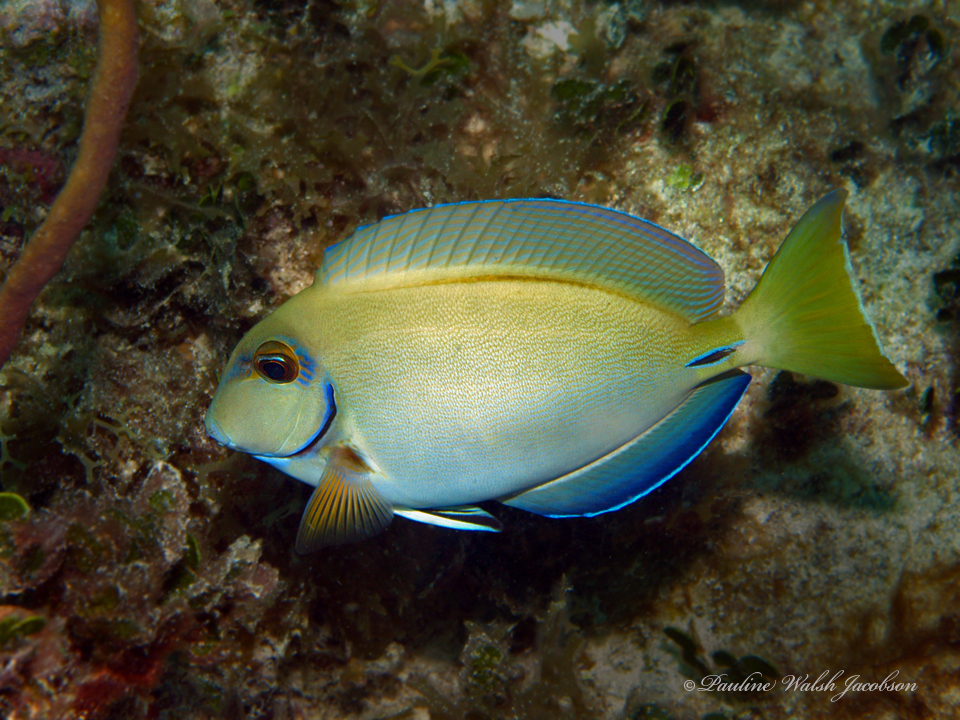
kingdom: Animalia
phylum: Chordata
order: Perciformes
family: Acanthuridae
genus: Acanthurus
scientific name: Acanthurus bahianus
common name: Ocean surgeon
